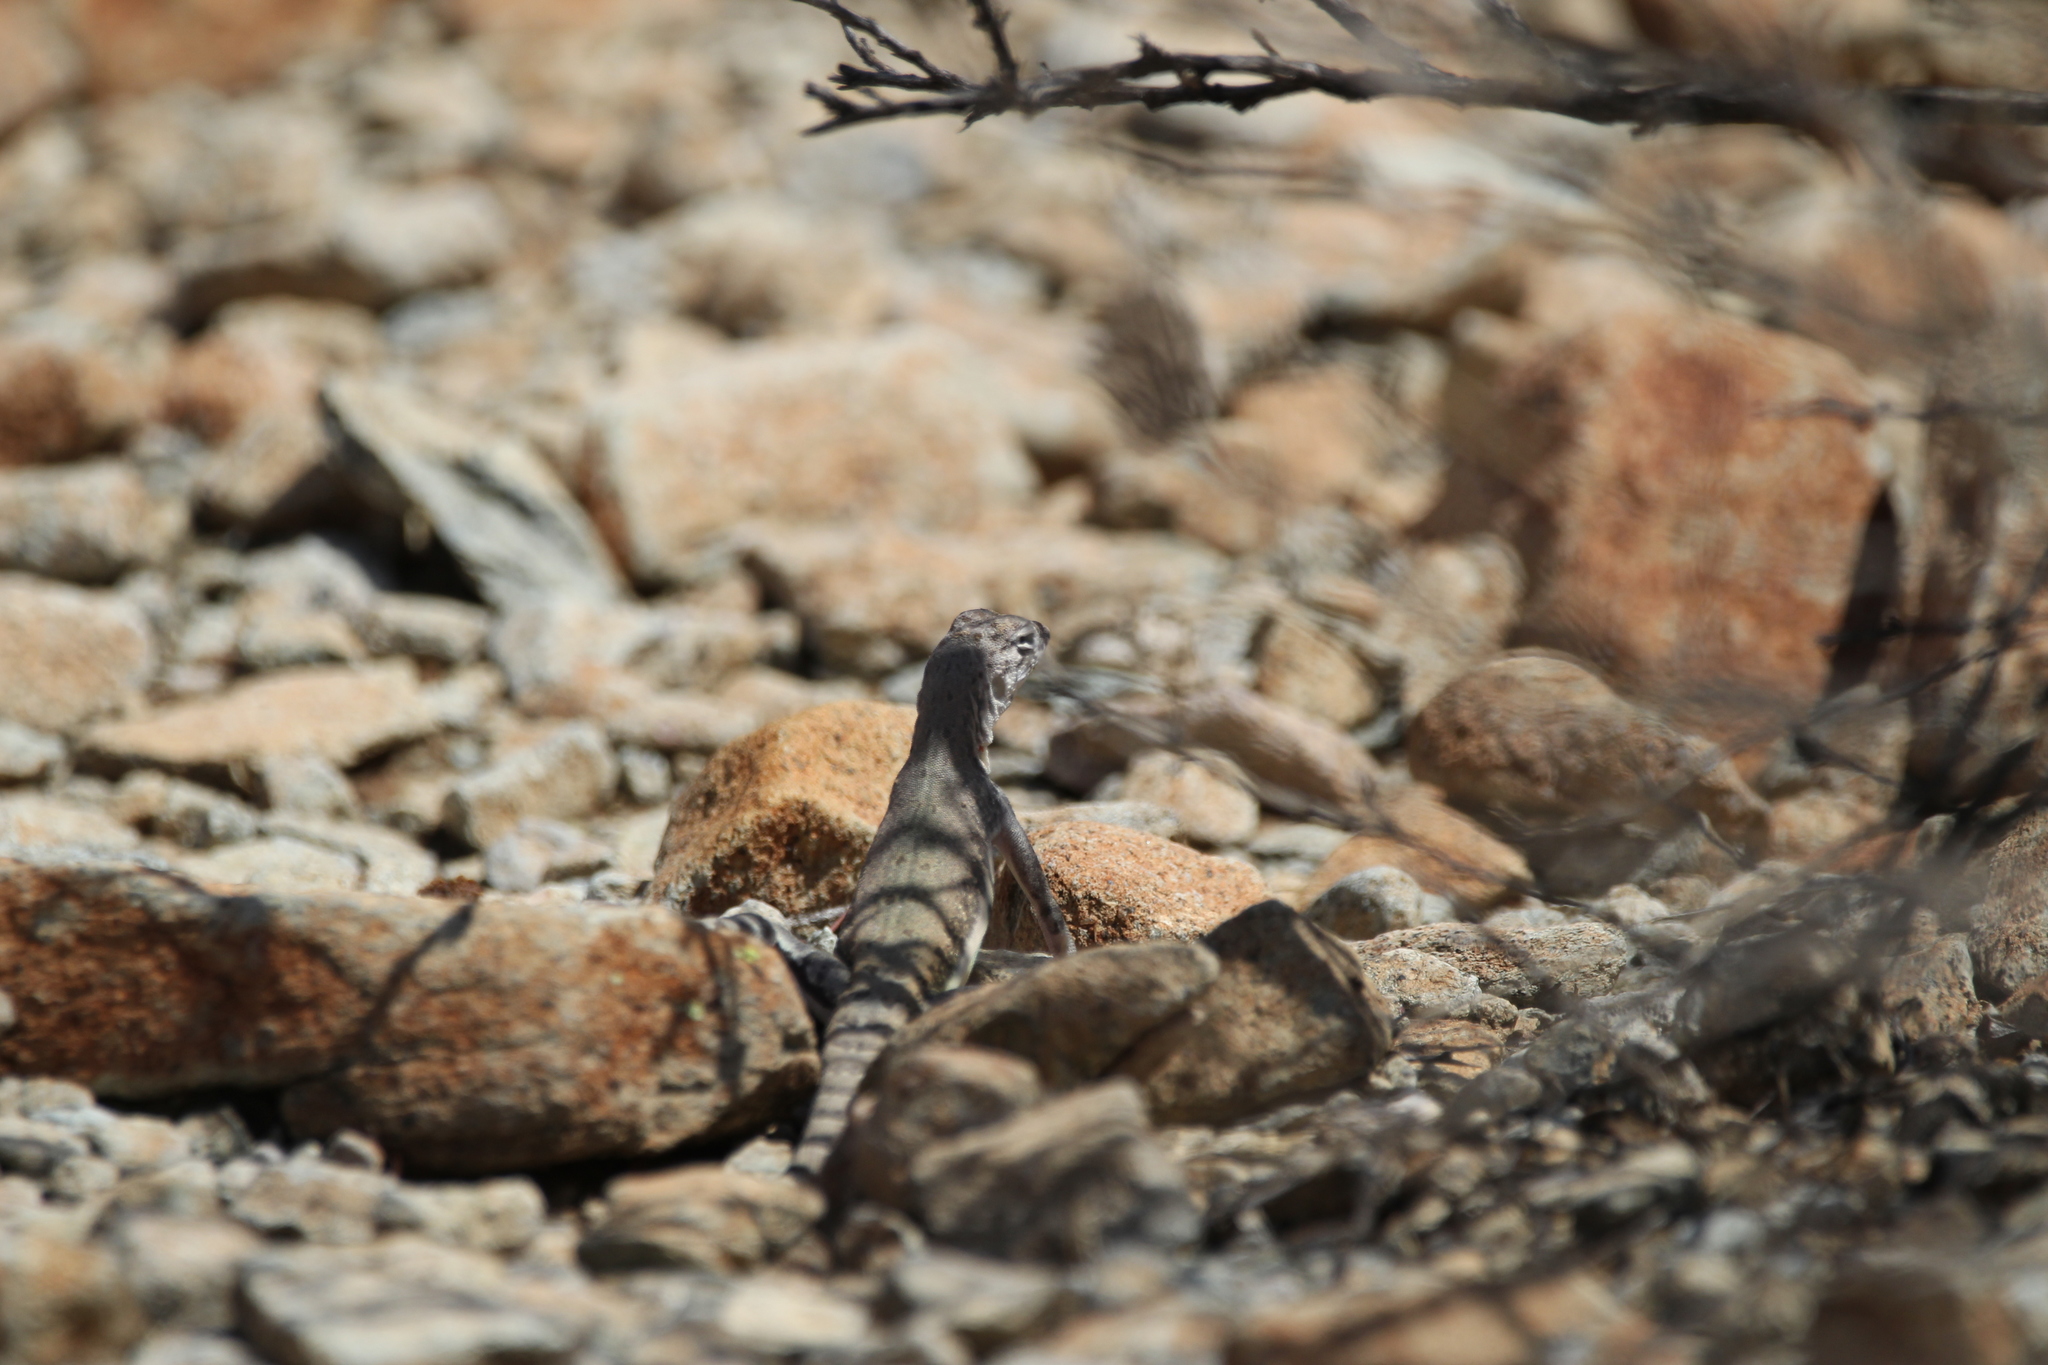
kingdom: Animalia
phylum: Chordata
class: Squamata
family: Phrynosomatidae
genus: Callisaurus
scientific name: Callisaurus draconoides
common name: Zebra-tailed lizard
